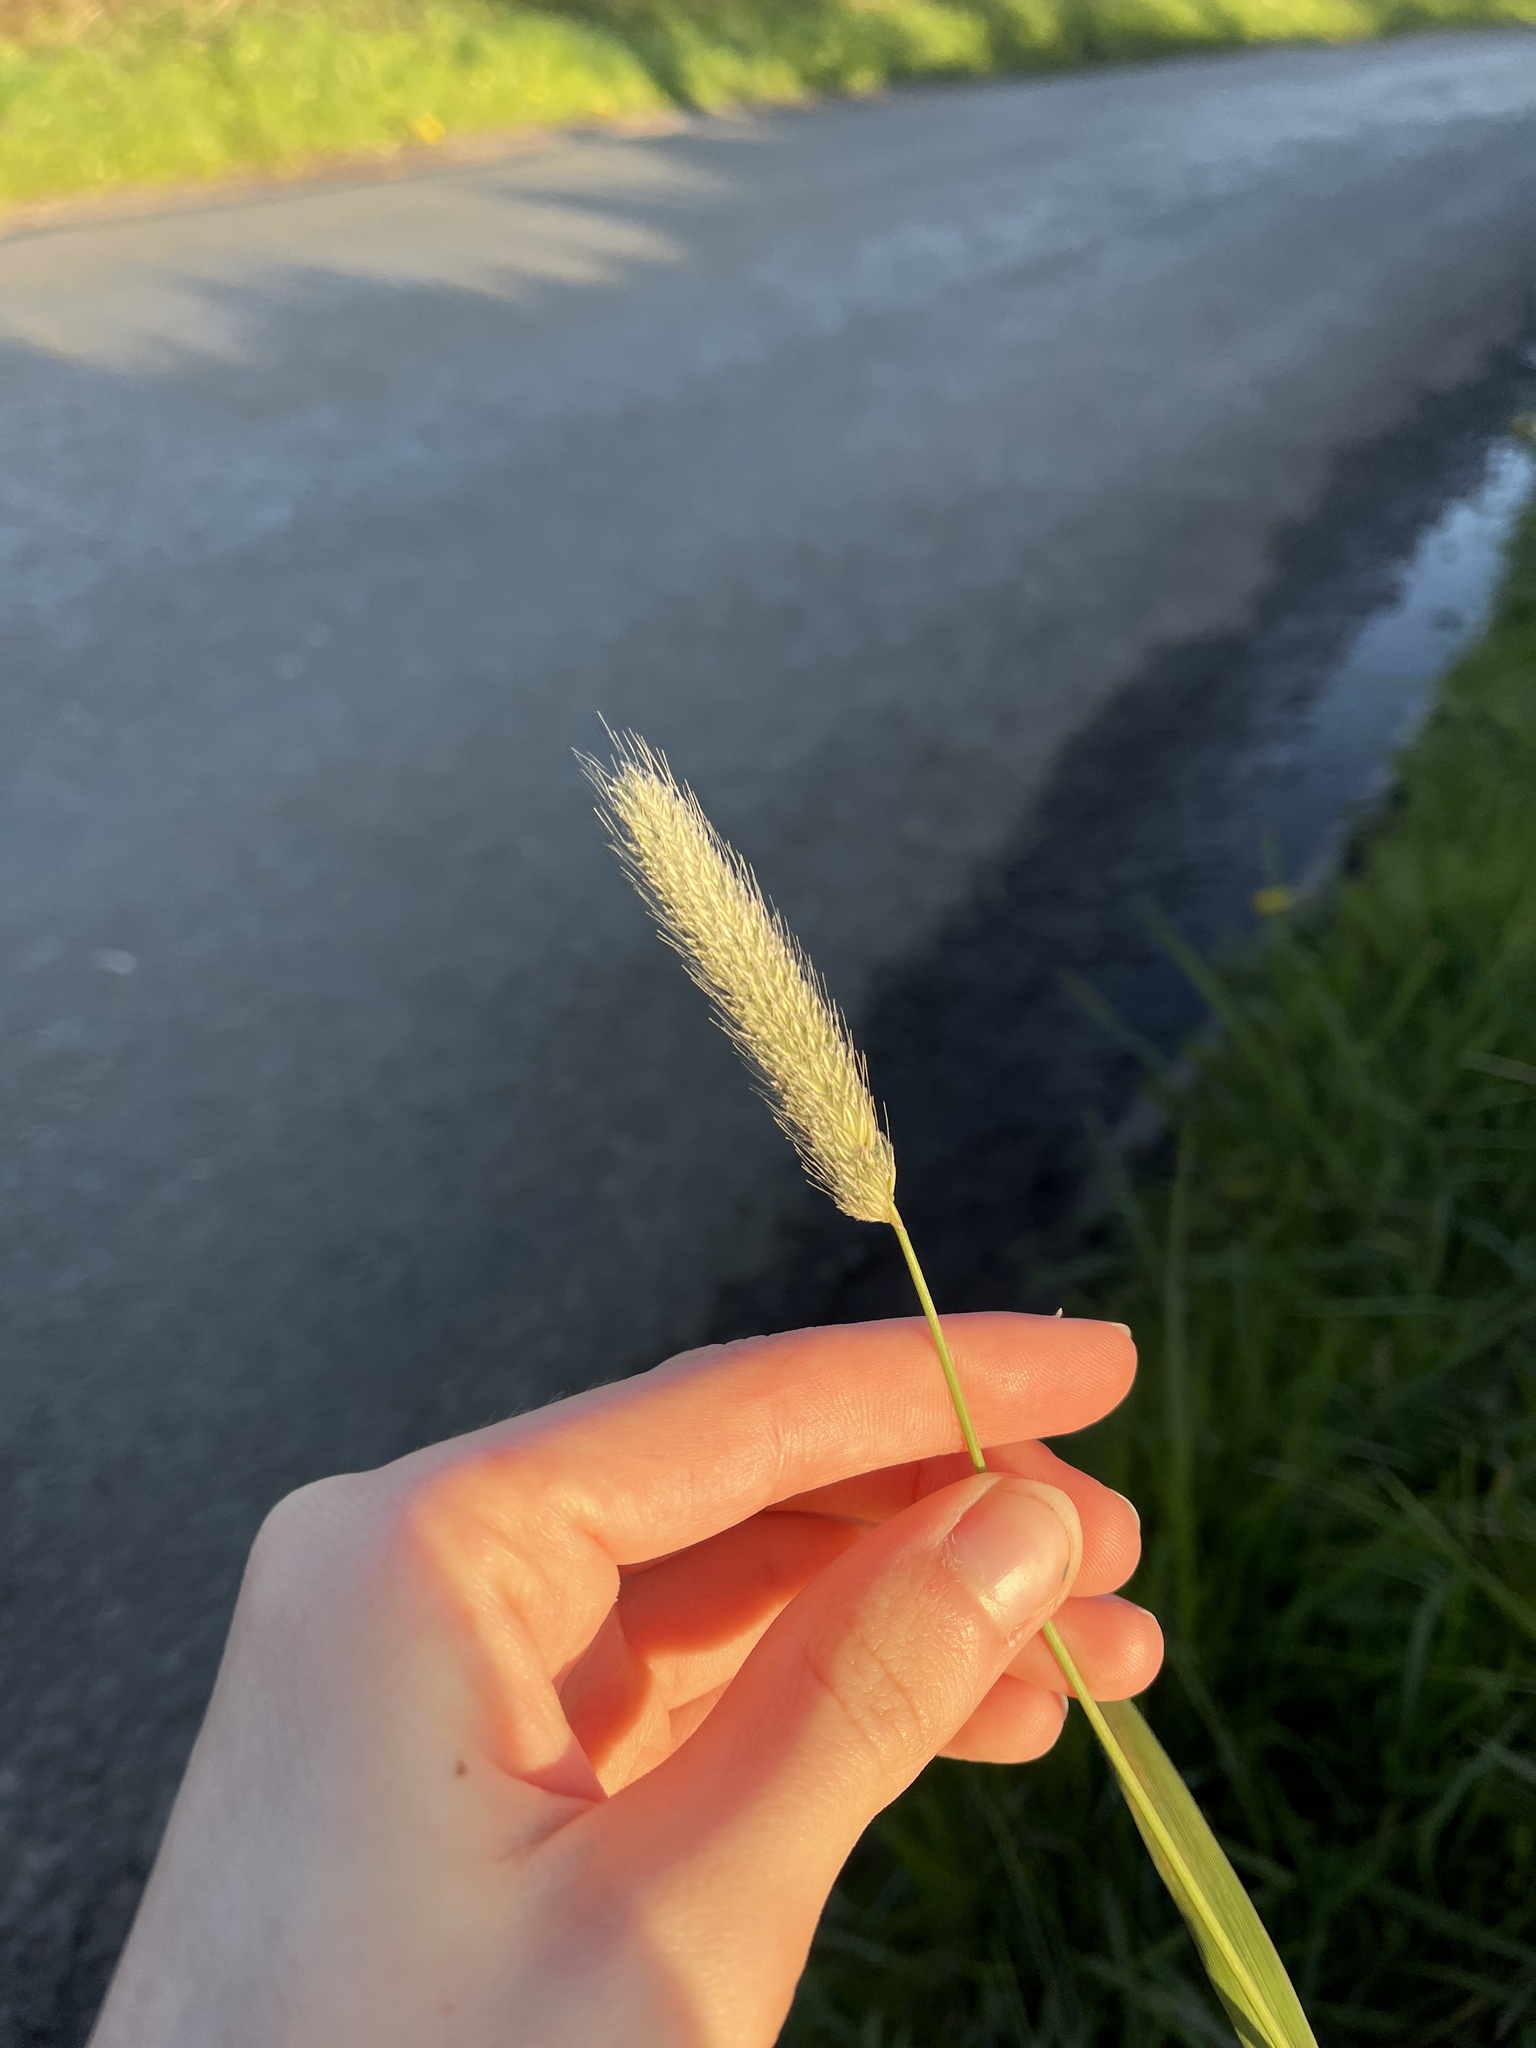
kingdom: Plantae
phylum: Tracheophyta
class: Liliopsida
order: Poales
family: Poaceae
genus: Alopecurus
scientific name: Alopecurus pratensis
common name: Meadow foxtail
